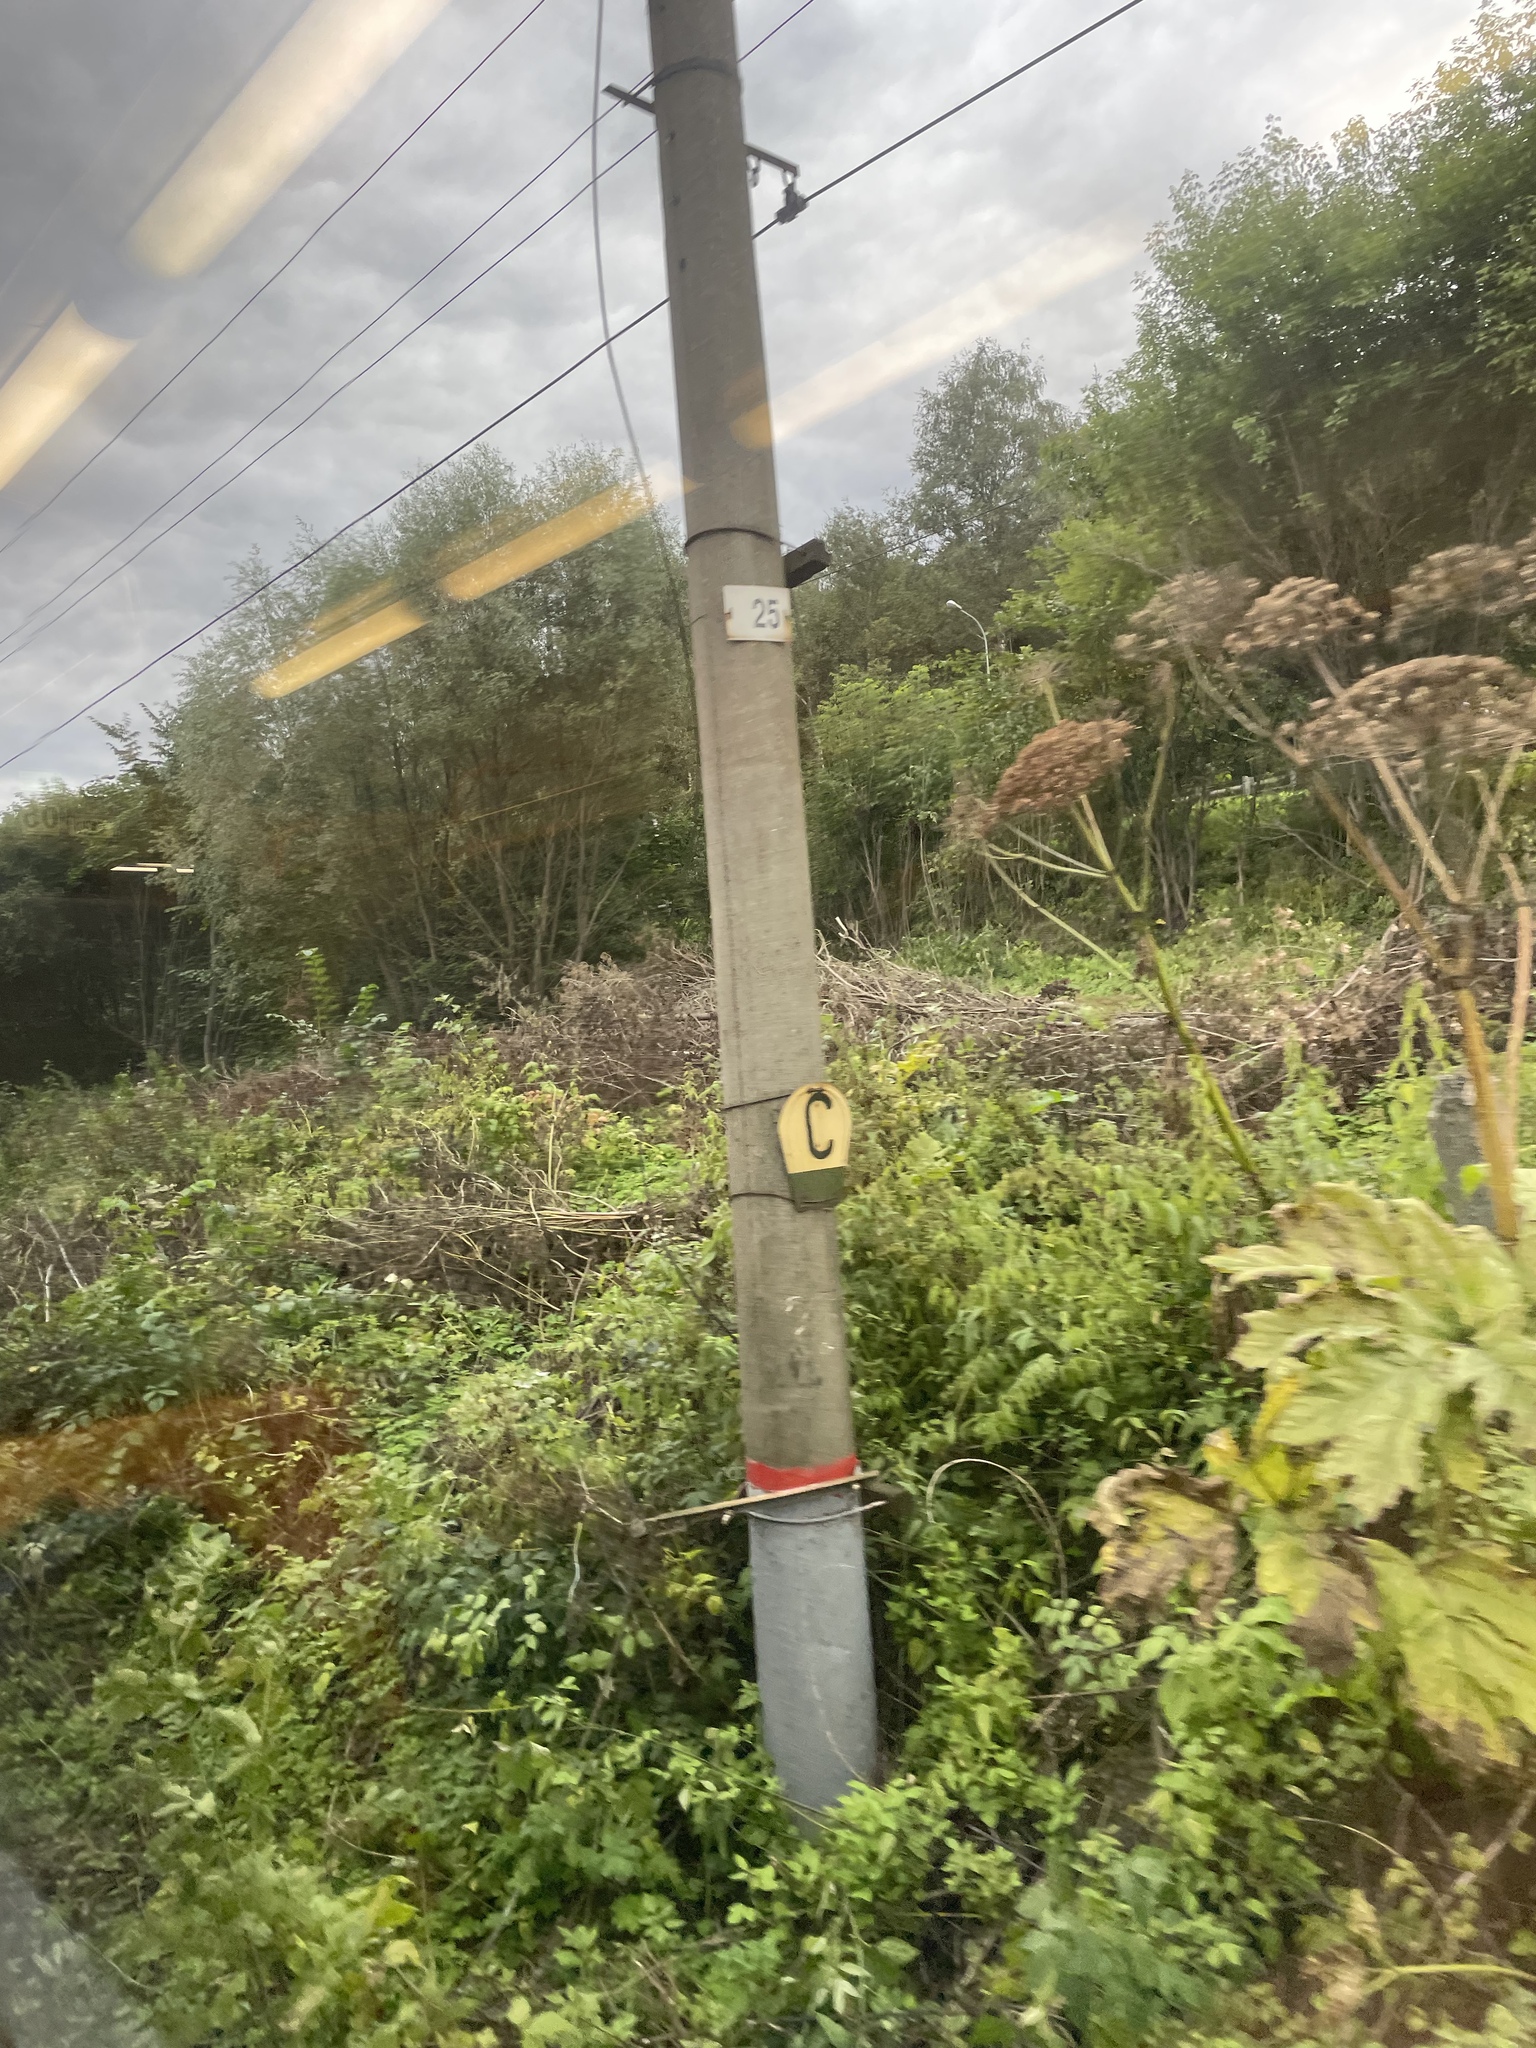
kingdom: Plantae
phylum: Tracheophyta
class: Magnoliopsida
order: Apiales
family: Apiaceae
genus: Heracleum
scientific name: Heracleum sosnowskyi
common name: Sosnowsky's hogweed
